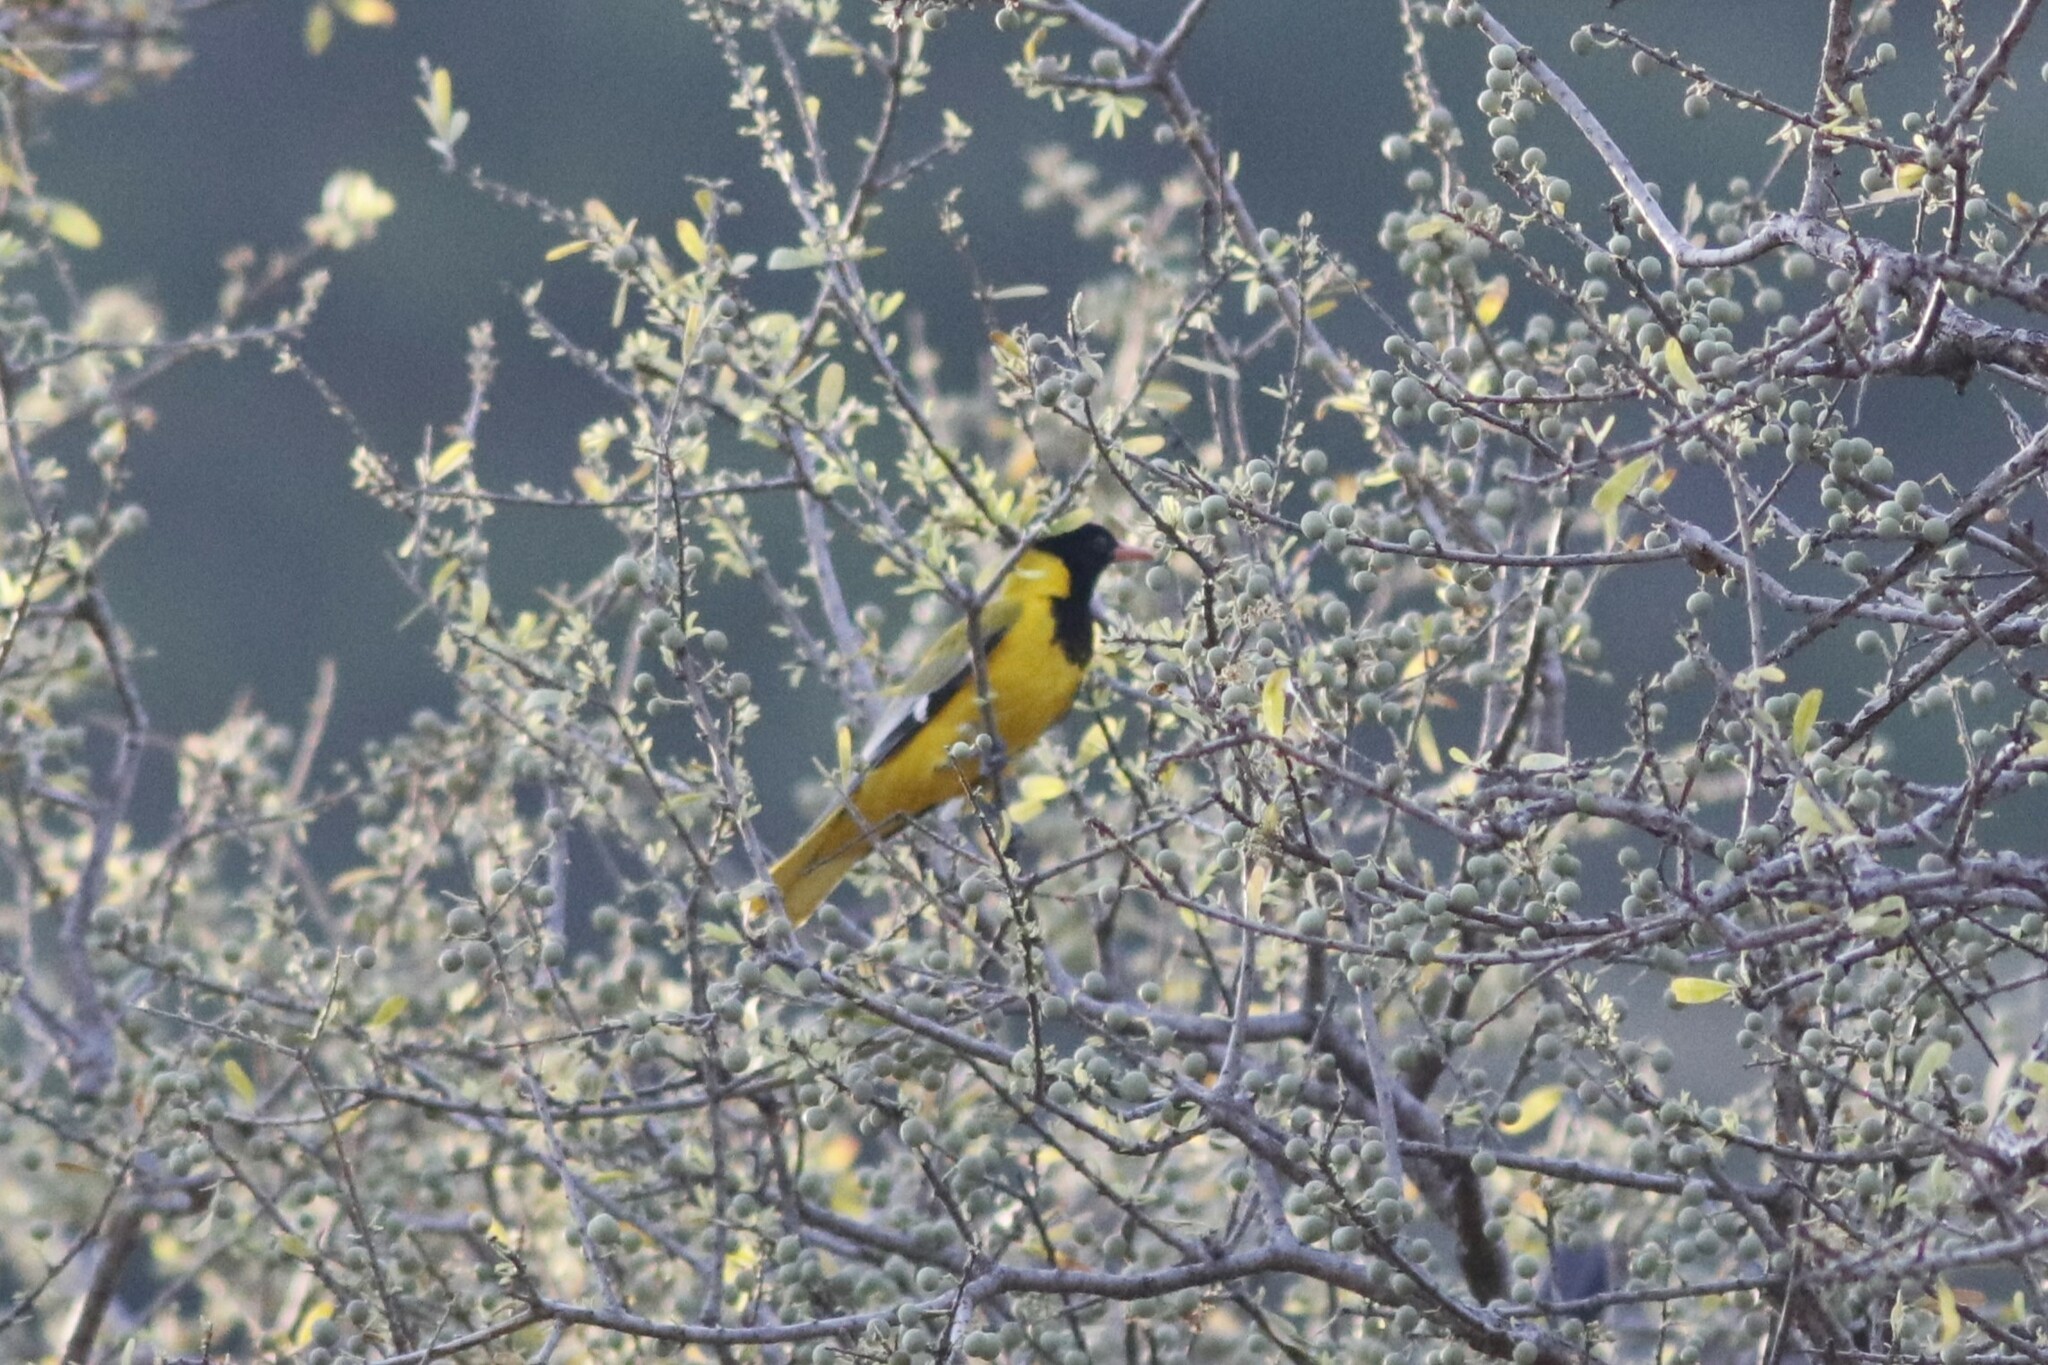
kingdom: Animalia
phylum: Chordata
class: Aves
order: Passeriformes
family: Oriolidae
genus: Oriolus
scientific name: Oriolus larvatus
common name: Black-headed oriole
